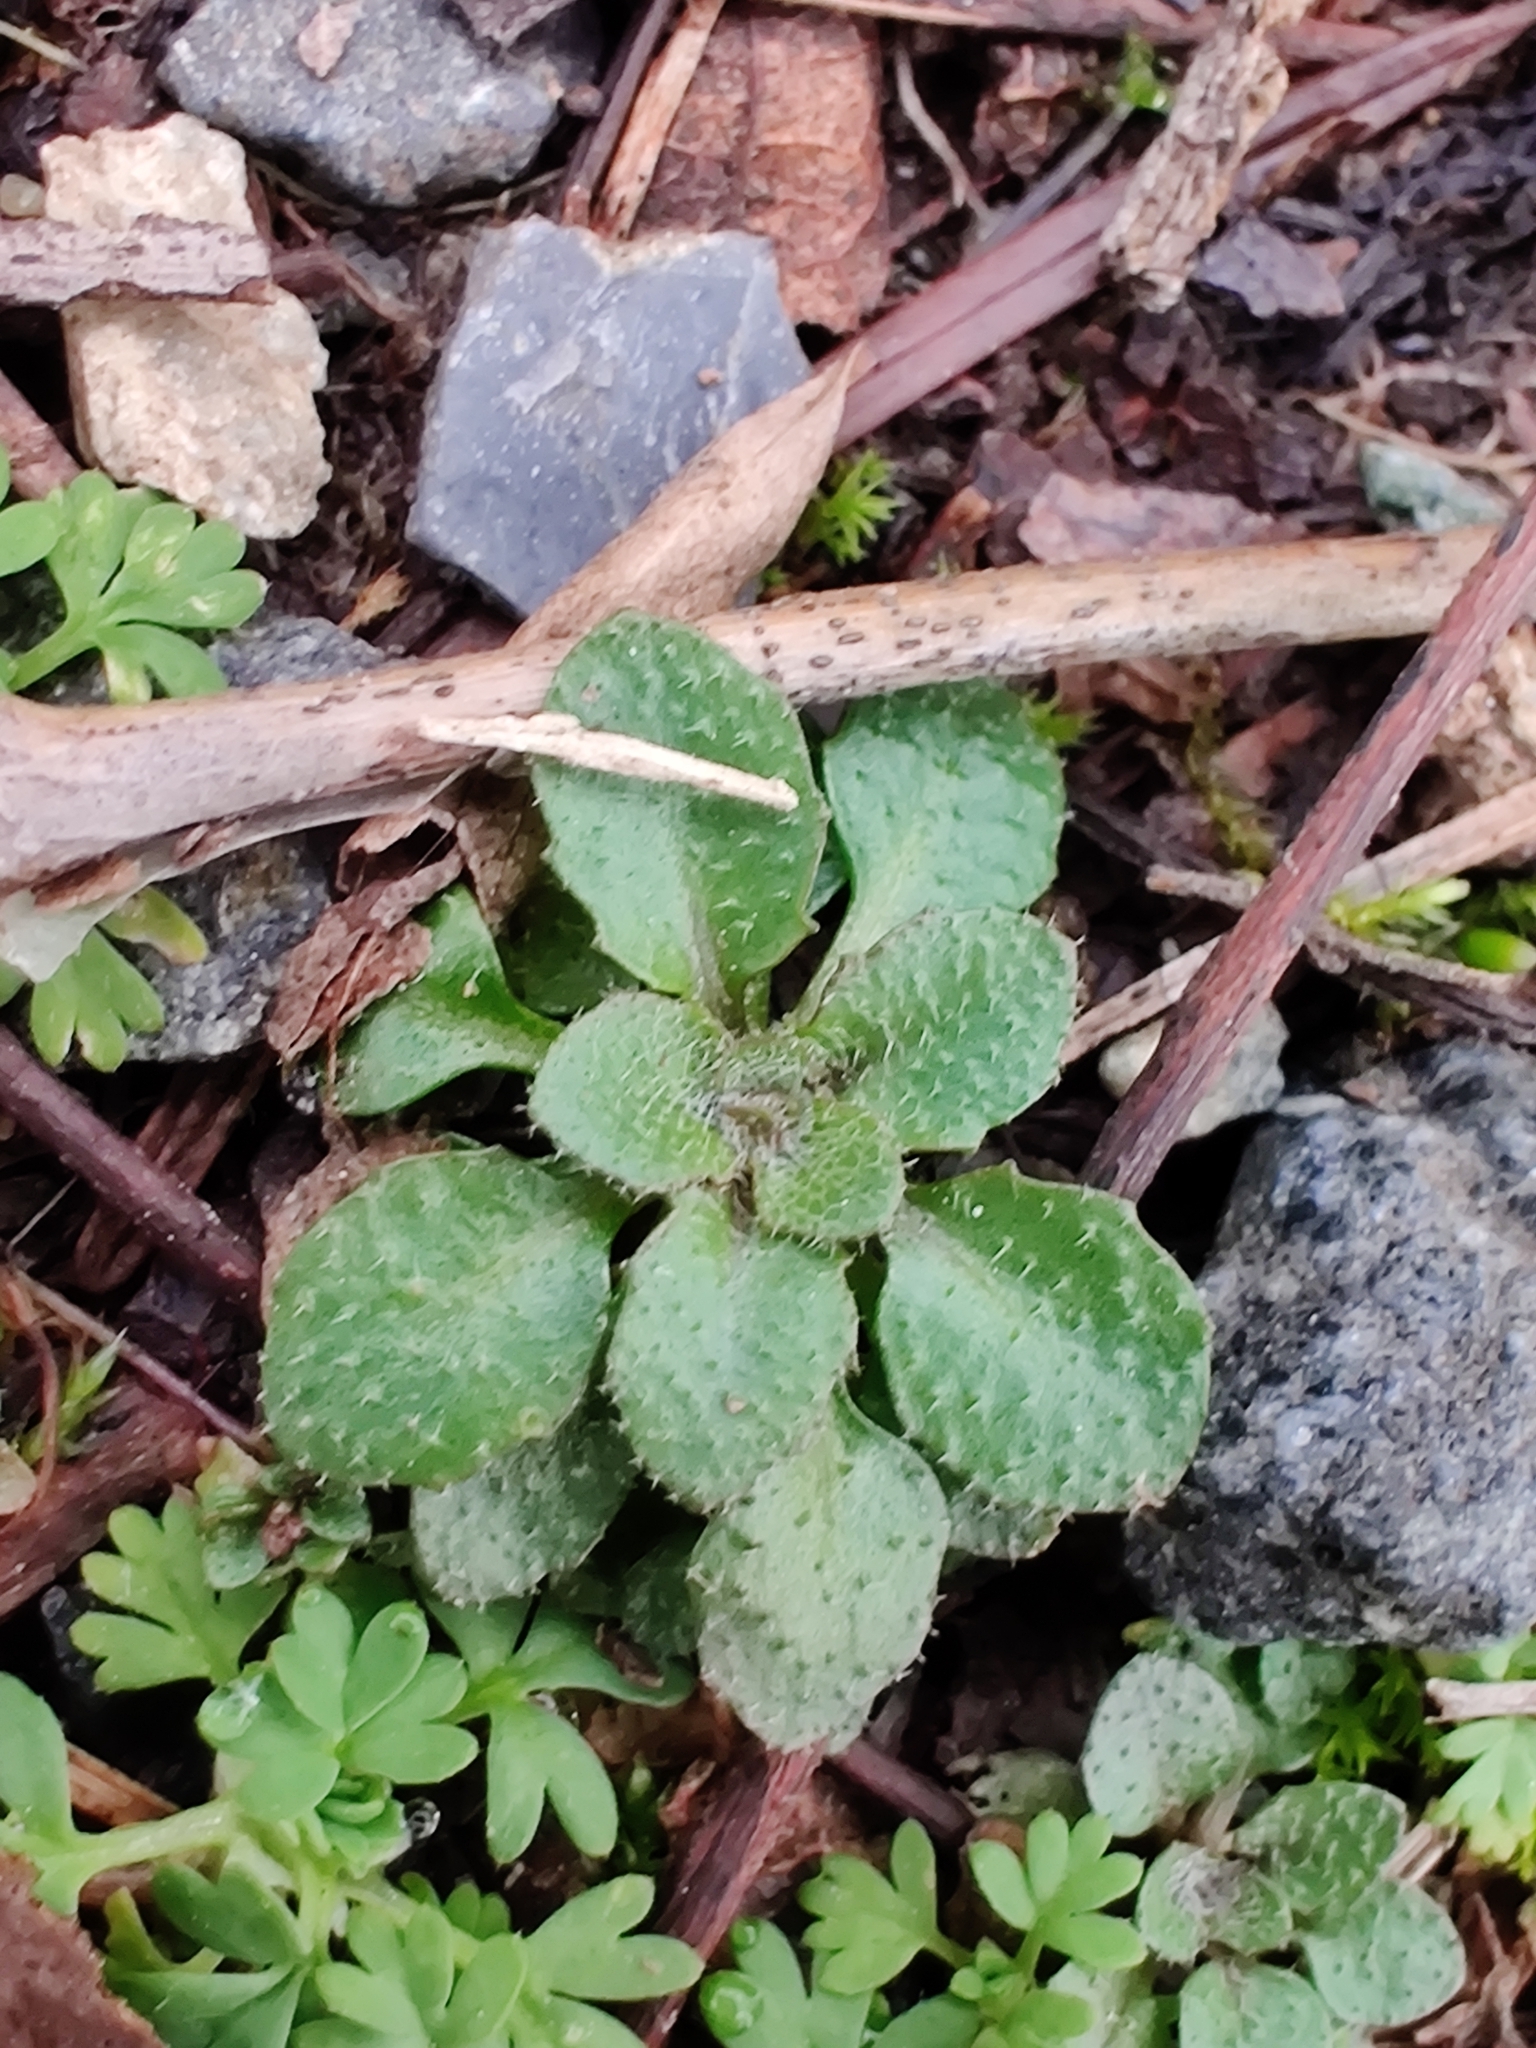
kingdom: Plantae
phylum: Tracheophyta
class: Magnoliopsida
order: Brassicales
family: Brassicaceae
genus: Arabidopsis
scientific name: Arabidopsis thaliana
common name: Thale cress
